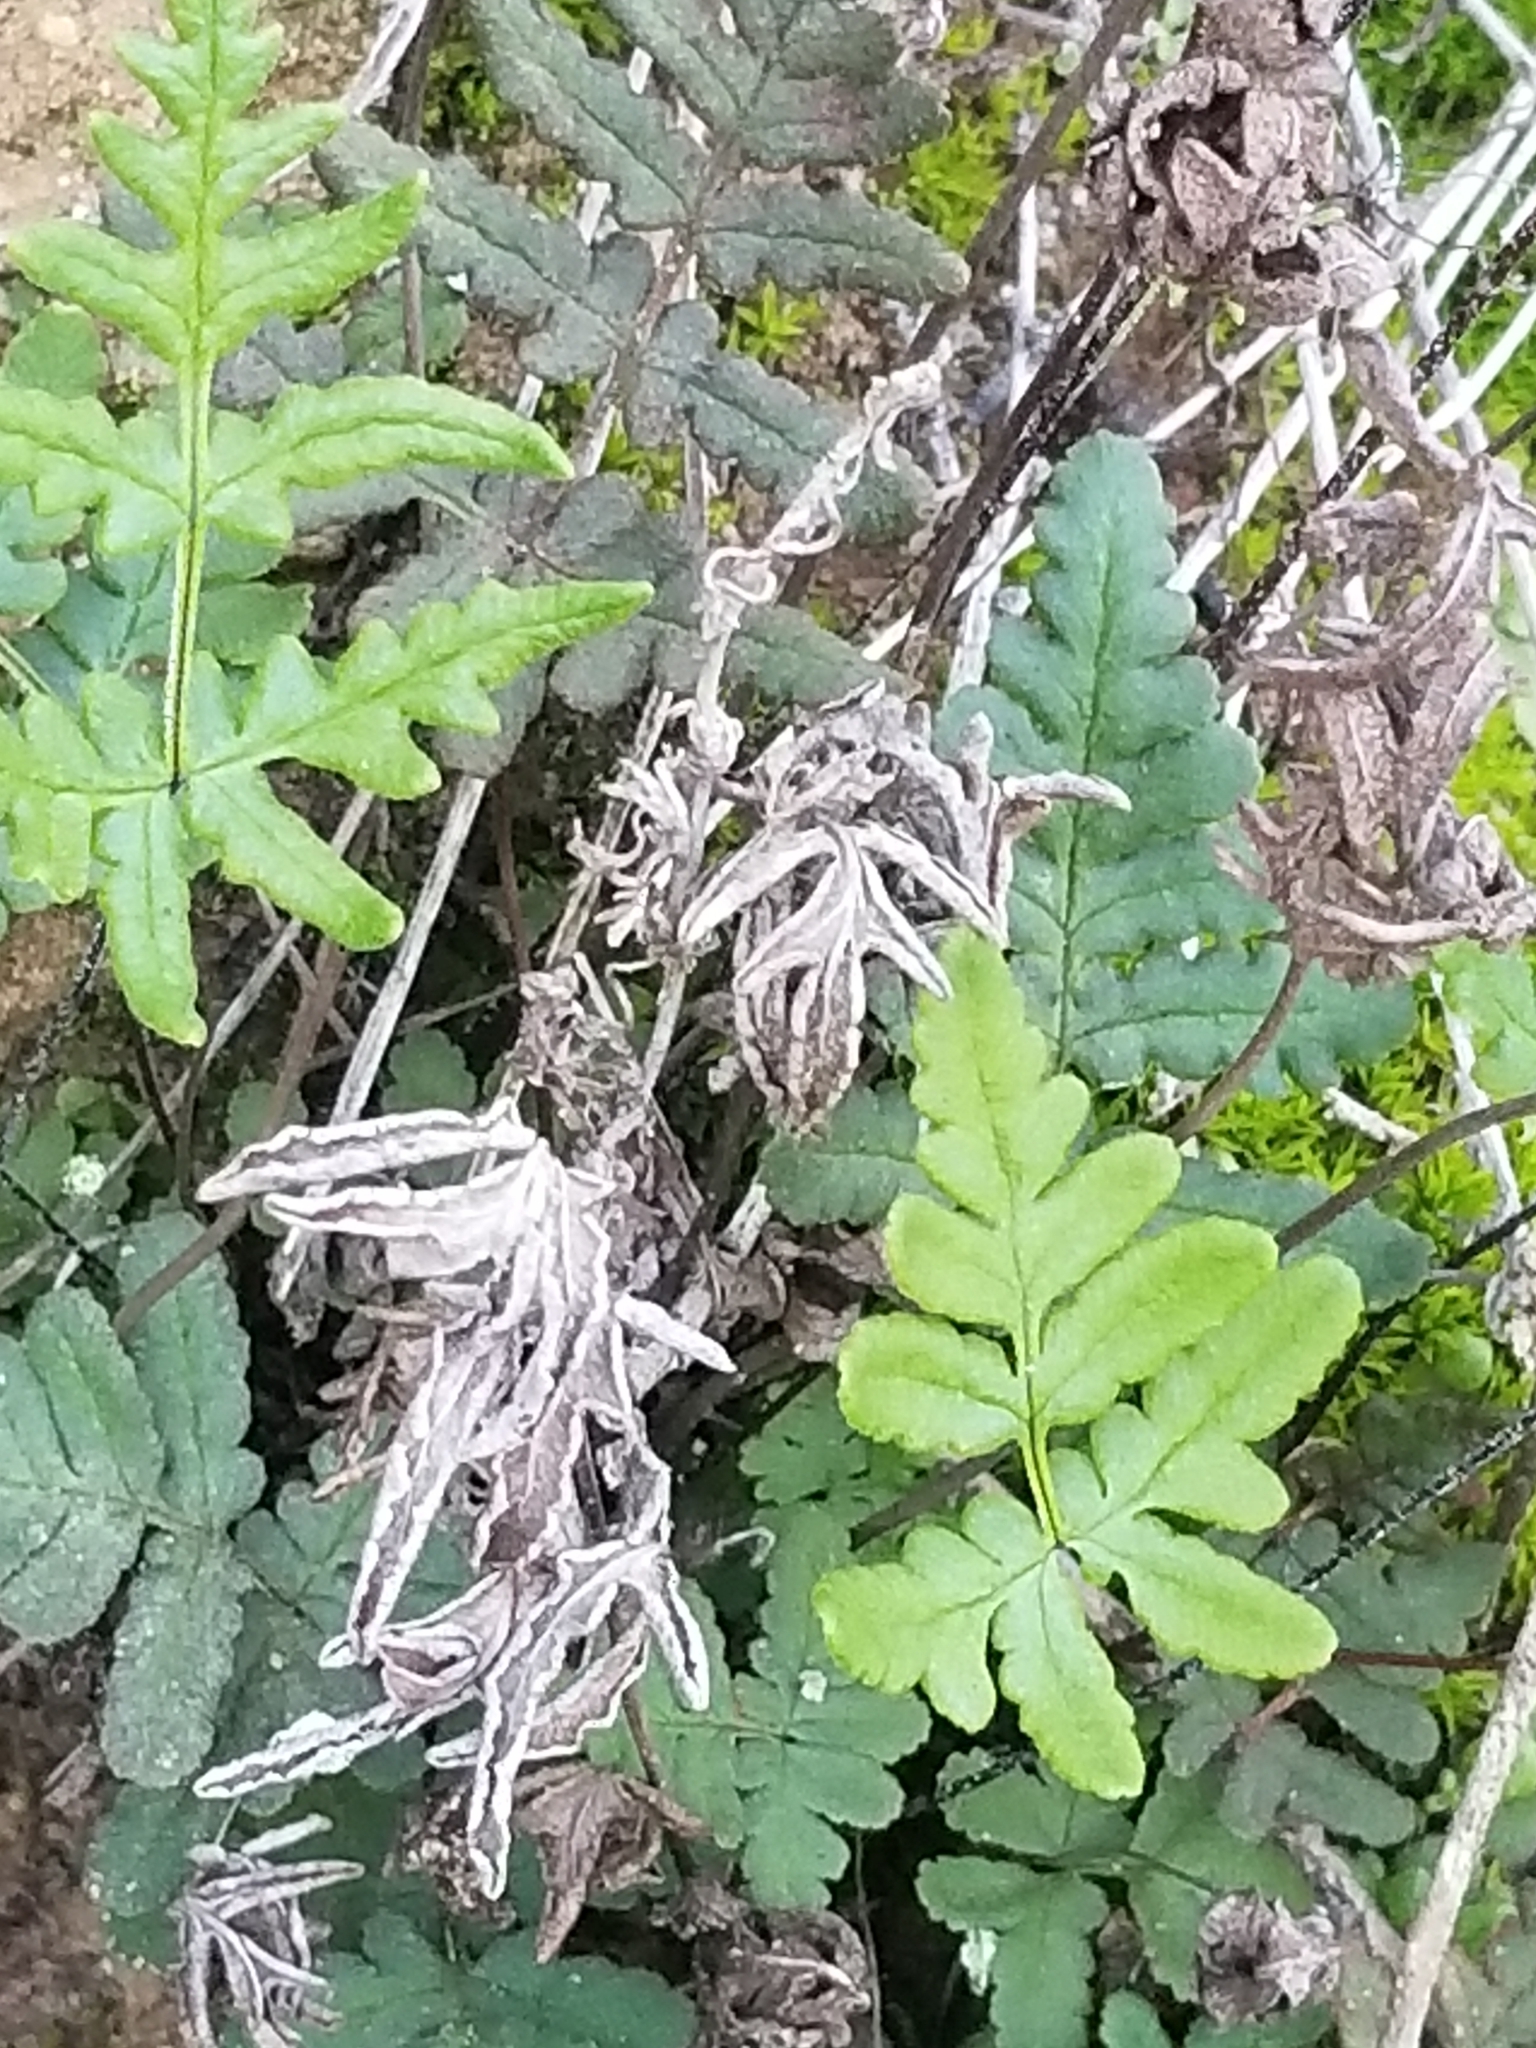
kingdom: Plantae
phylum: Tracheophyta
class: Polypodiopsida
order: Polypodiales
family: Pteridaceae
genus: Pentagramma
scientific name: Pentagramma viscosa
